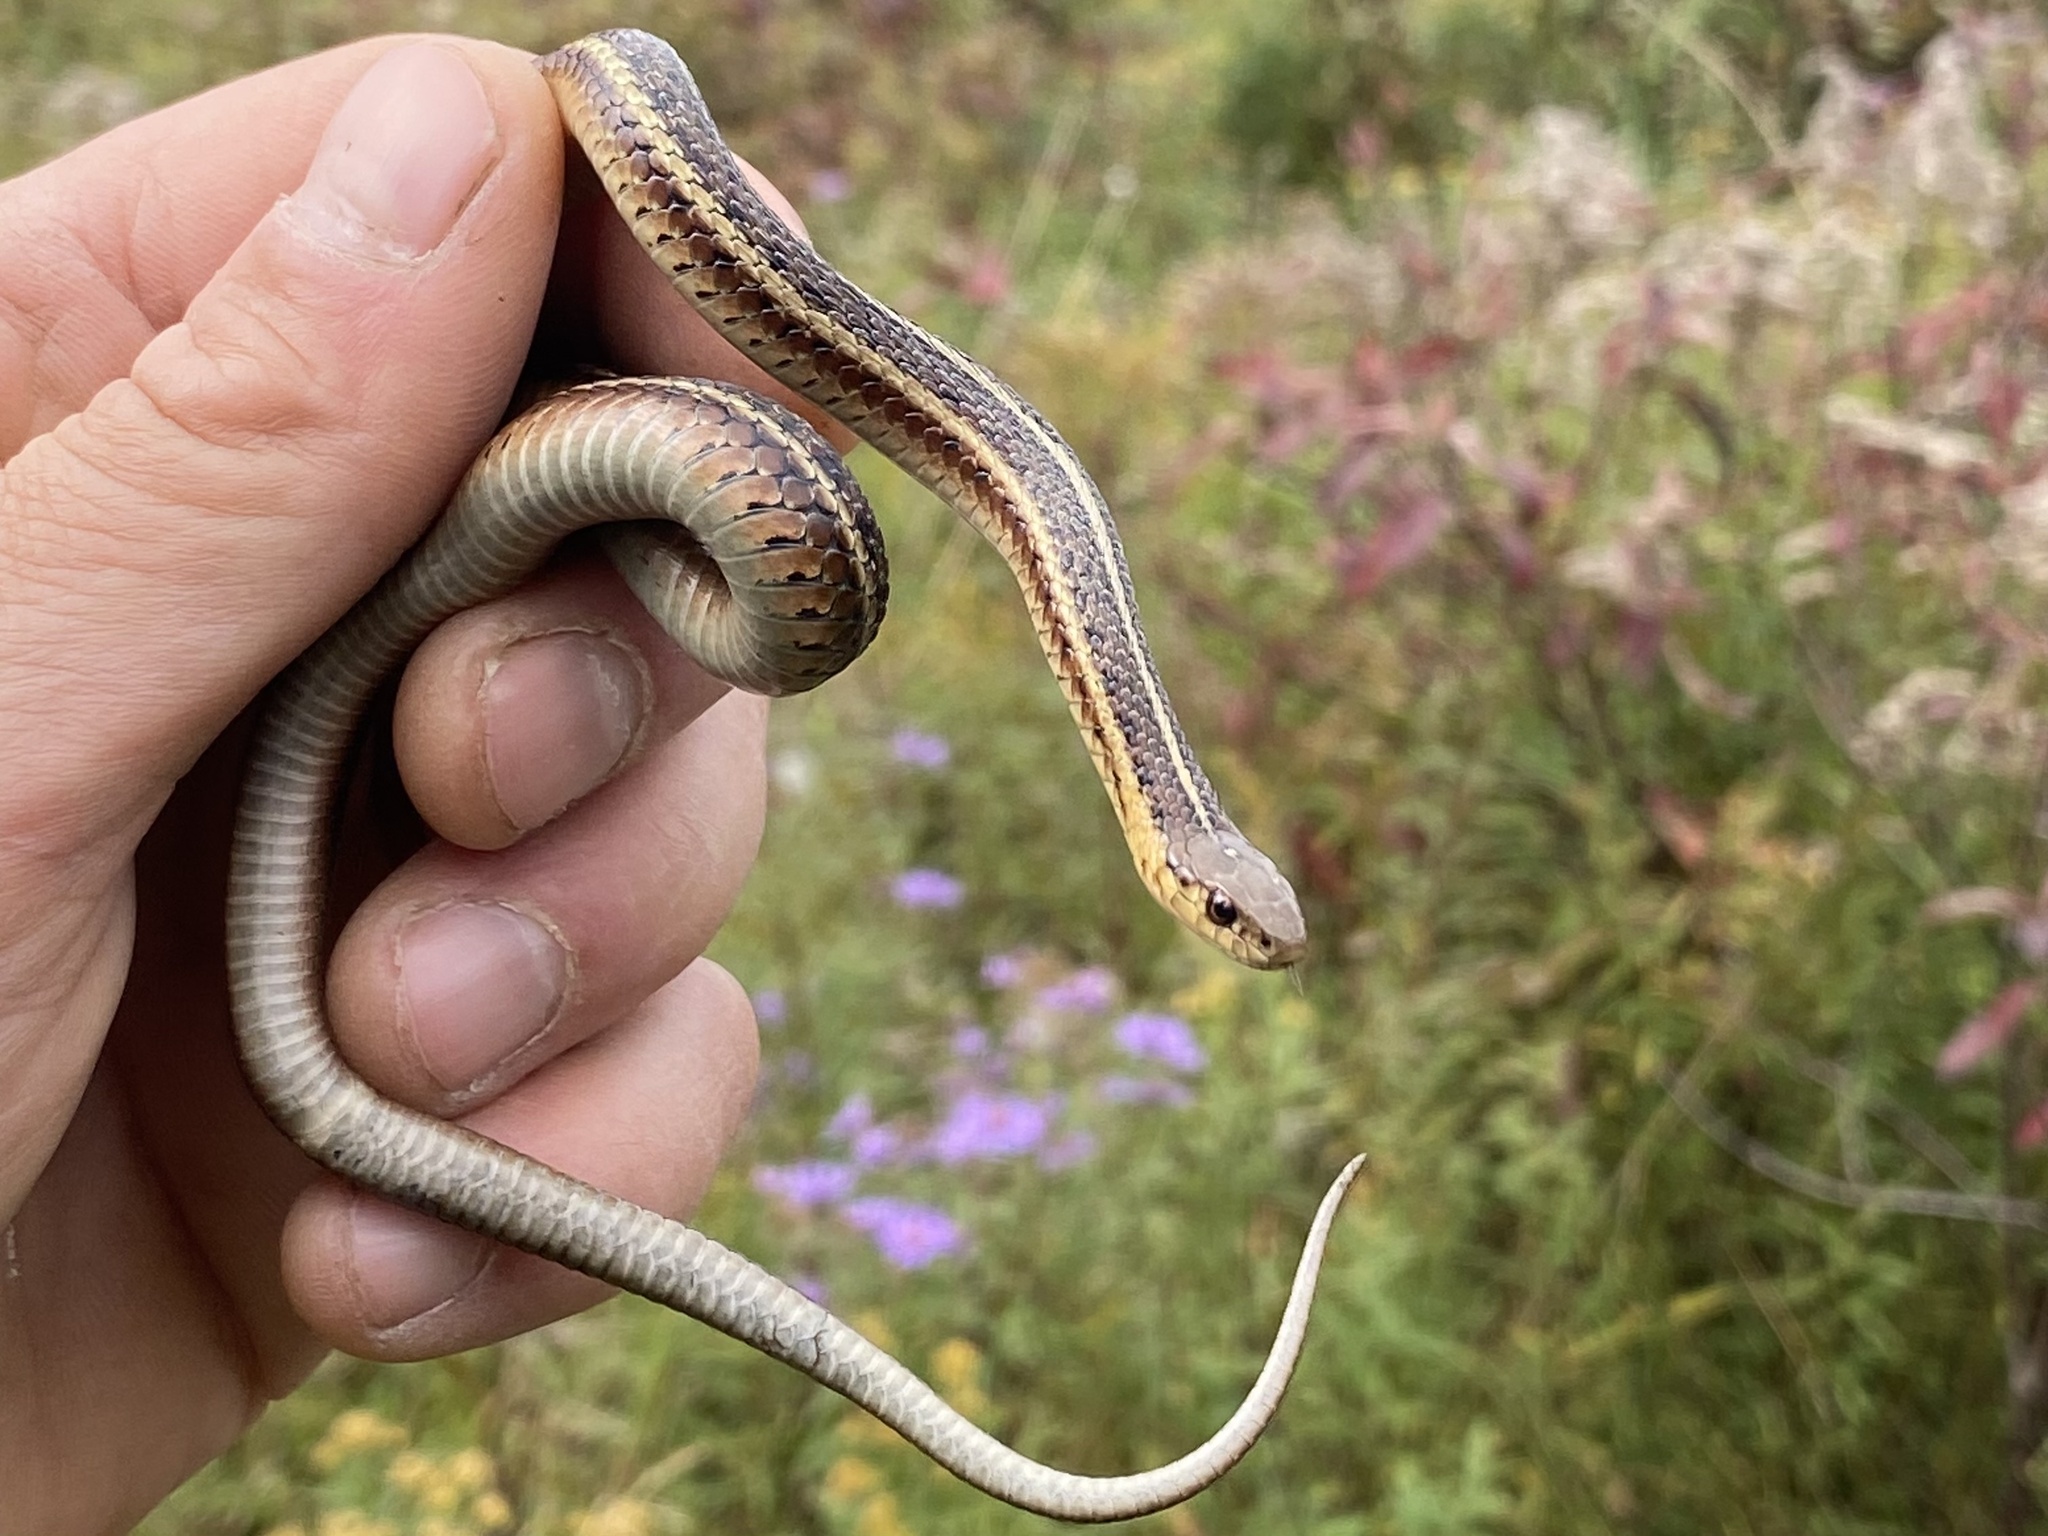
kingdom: Animalia
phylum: Chordata
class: Squamata
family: Colubridae
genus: Thamnophis
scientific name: Thamnophis butleri
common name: Butler's garter snake
